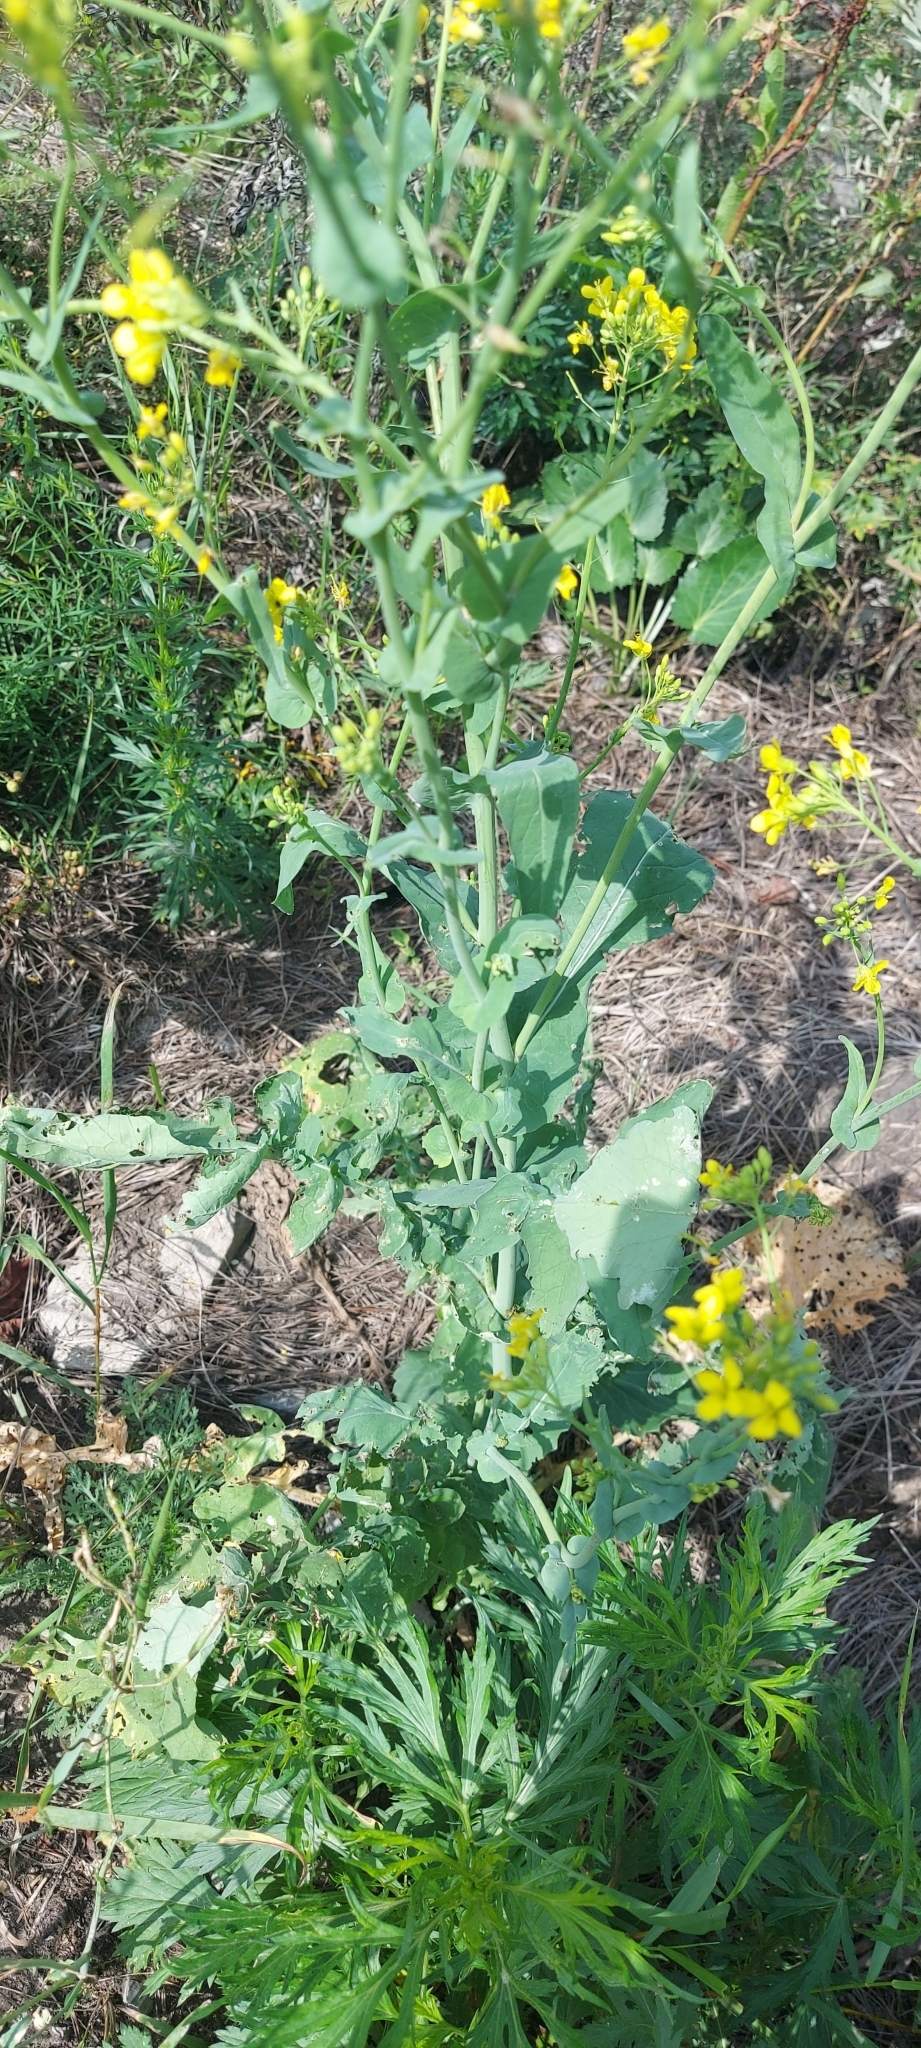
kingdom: Plantae
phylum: Tracheophyta
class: Magnoliopsida
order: Brassicales
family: Brassicaceae
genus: Brassica
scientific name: Brassica napus
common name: Rape
